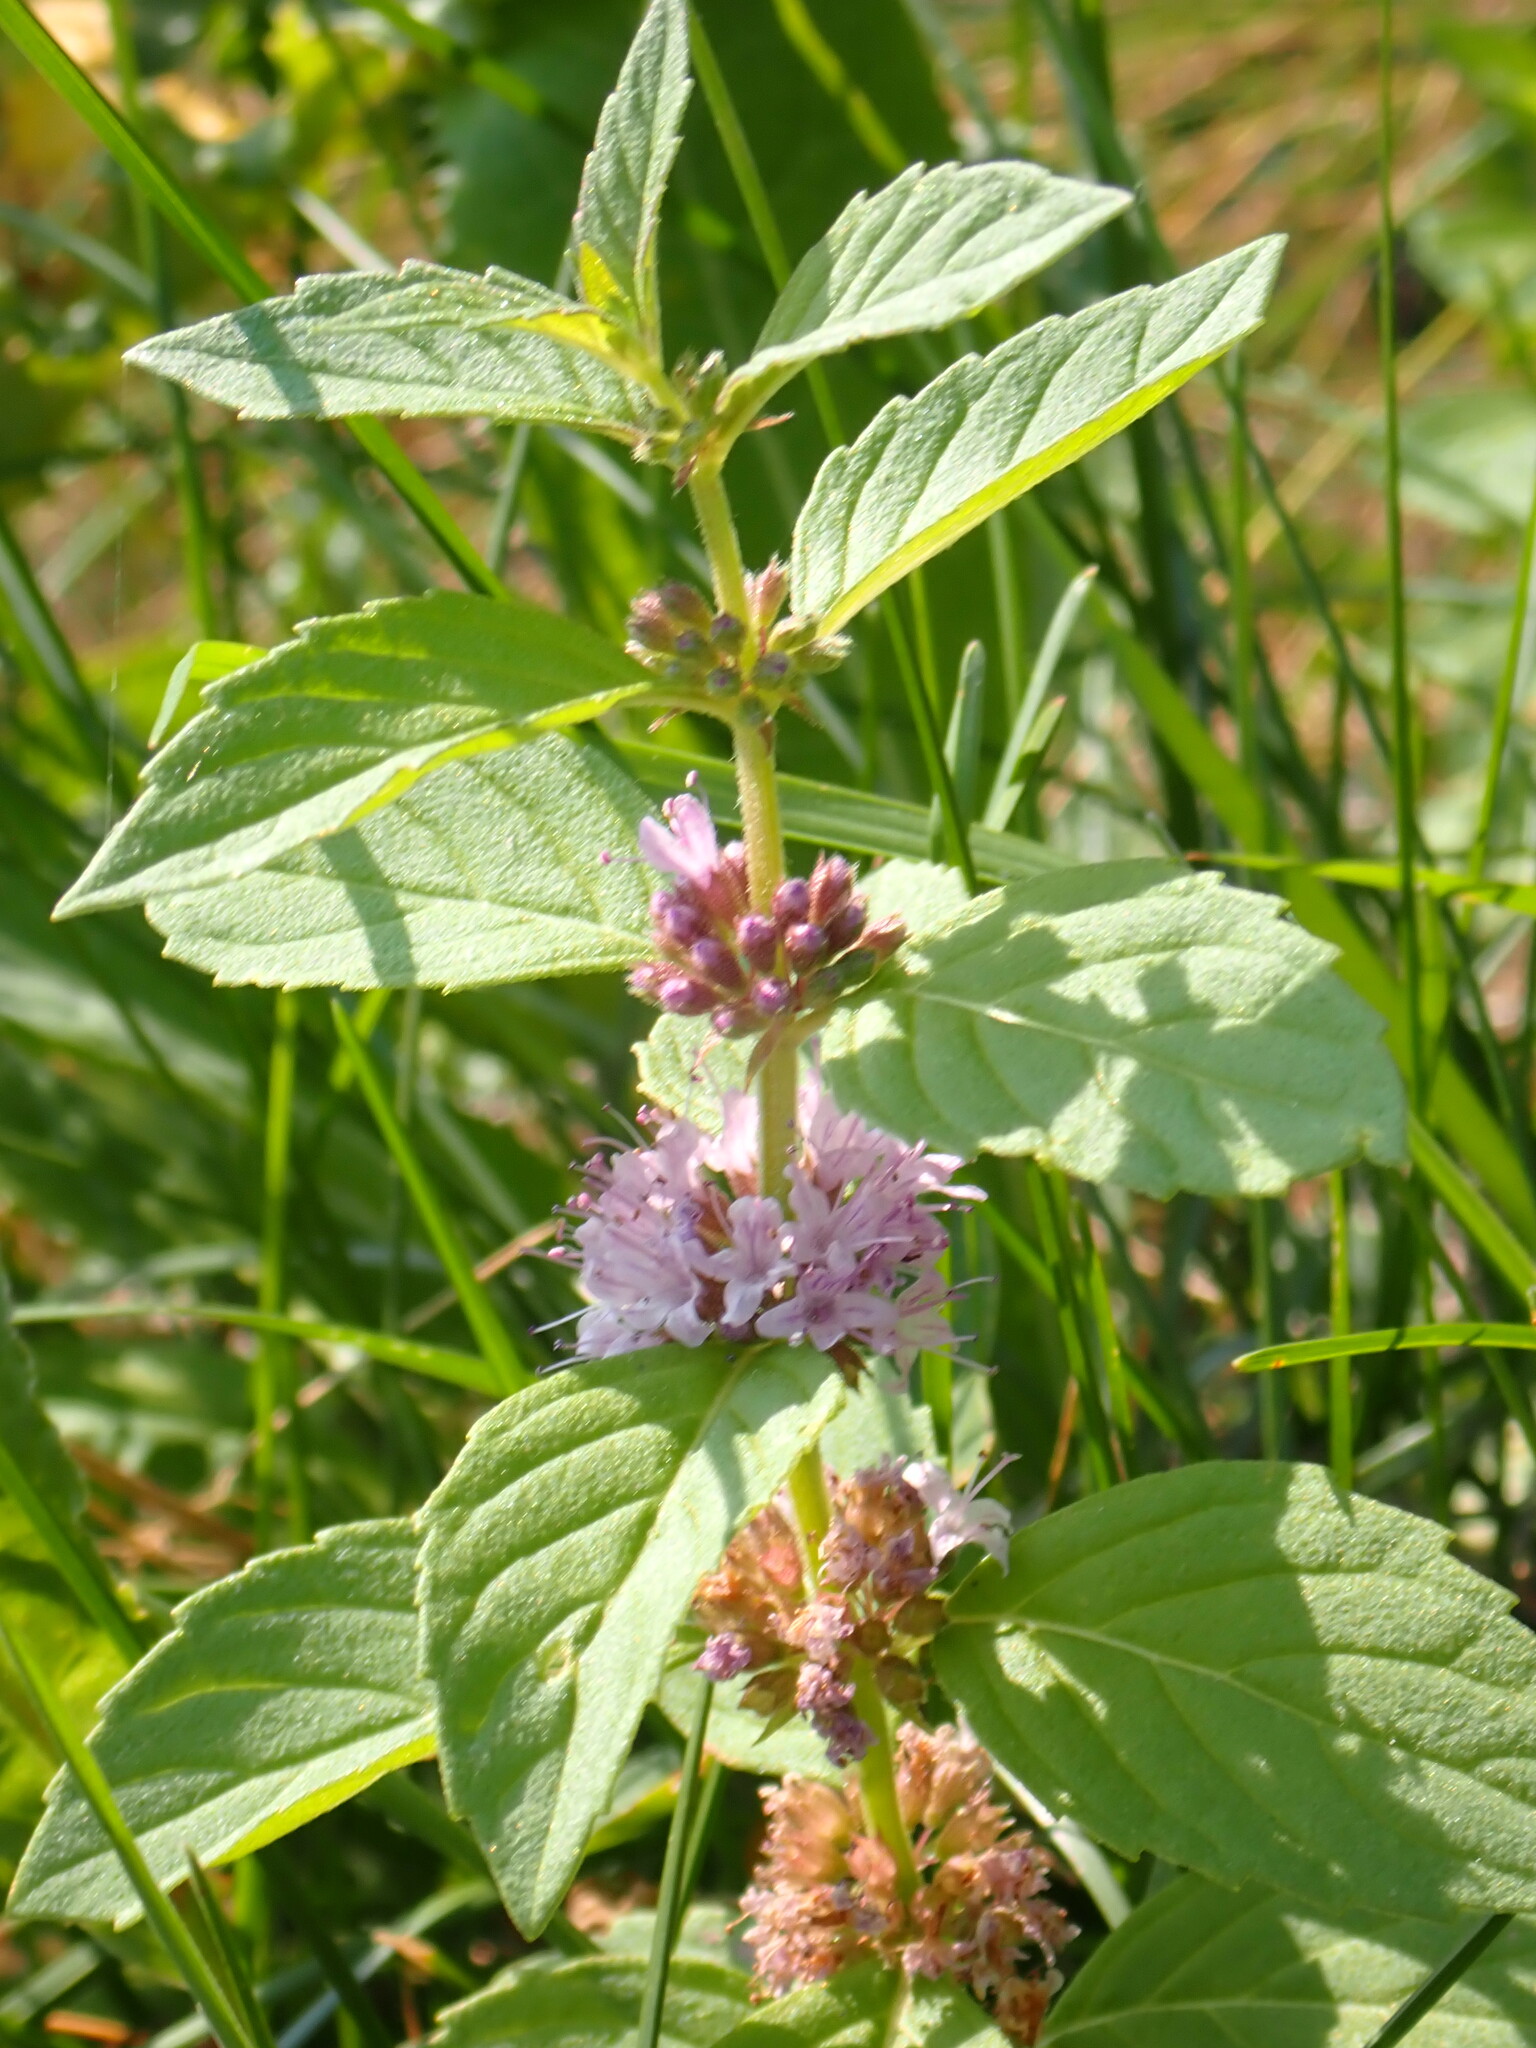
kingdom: Plantae
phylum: Tracheophyta
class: Magnoliopsida
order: Lamiales
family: Lamiaceae
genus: Mentha
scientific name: Mentha canadensis
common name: American corn mint
